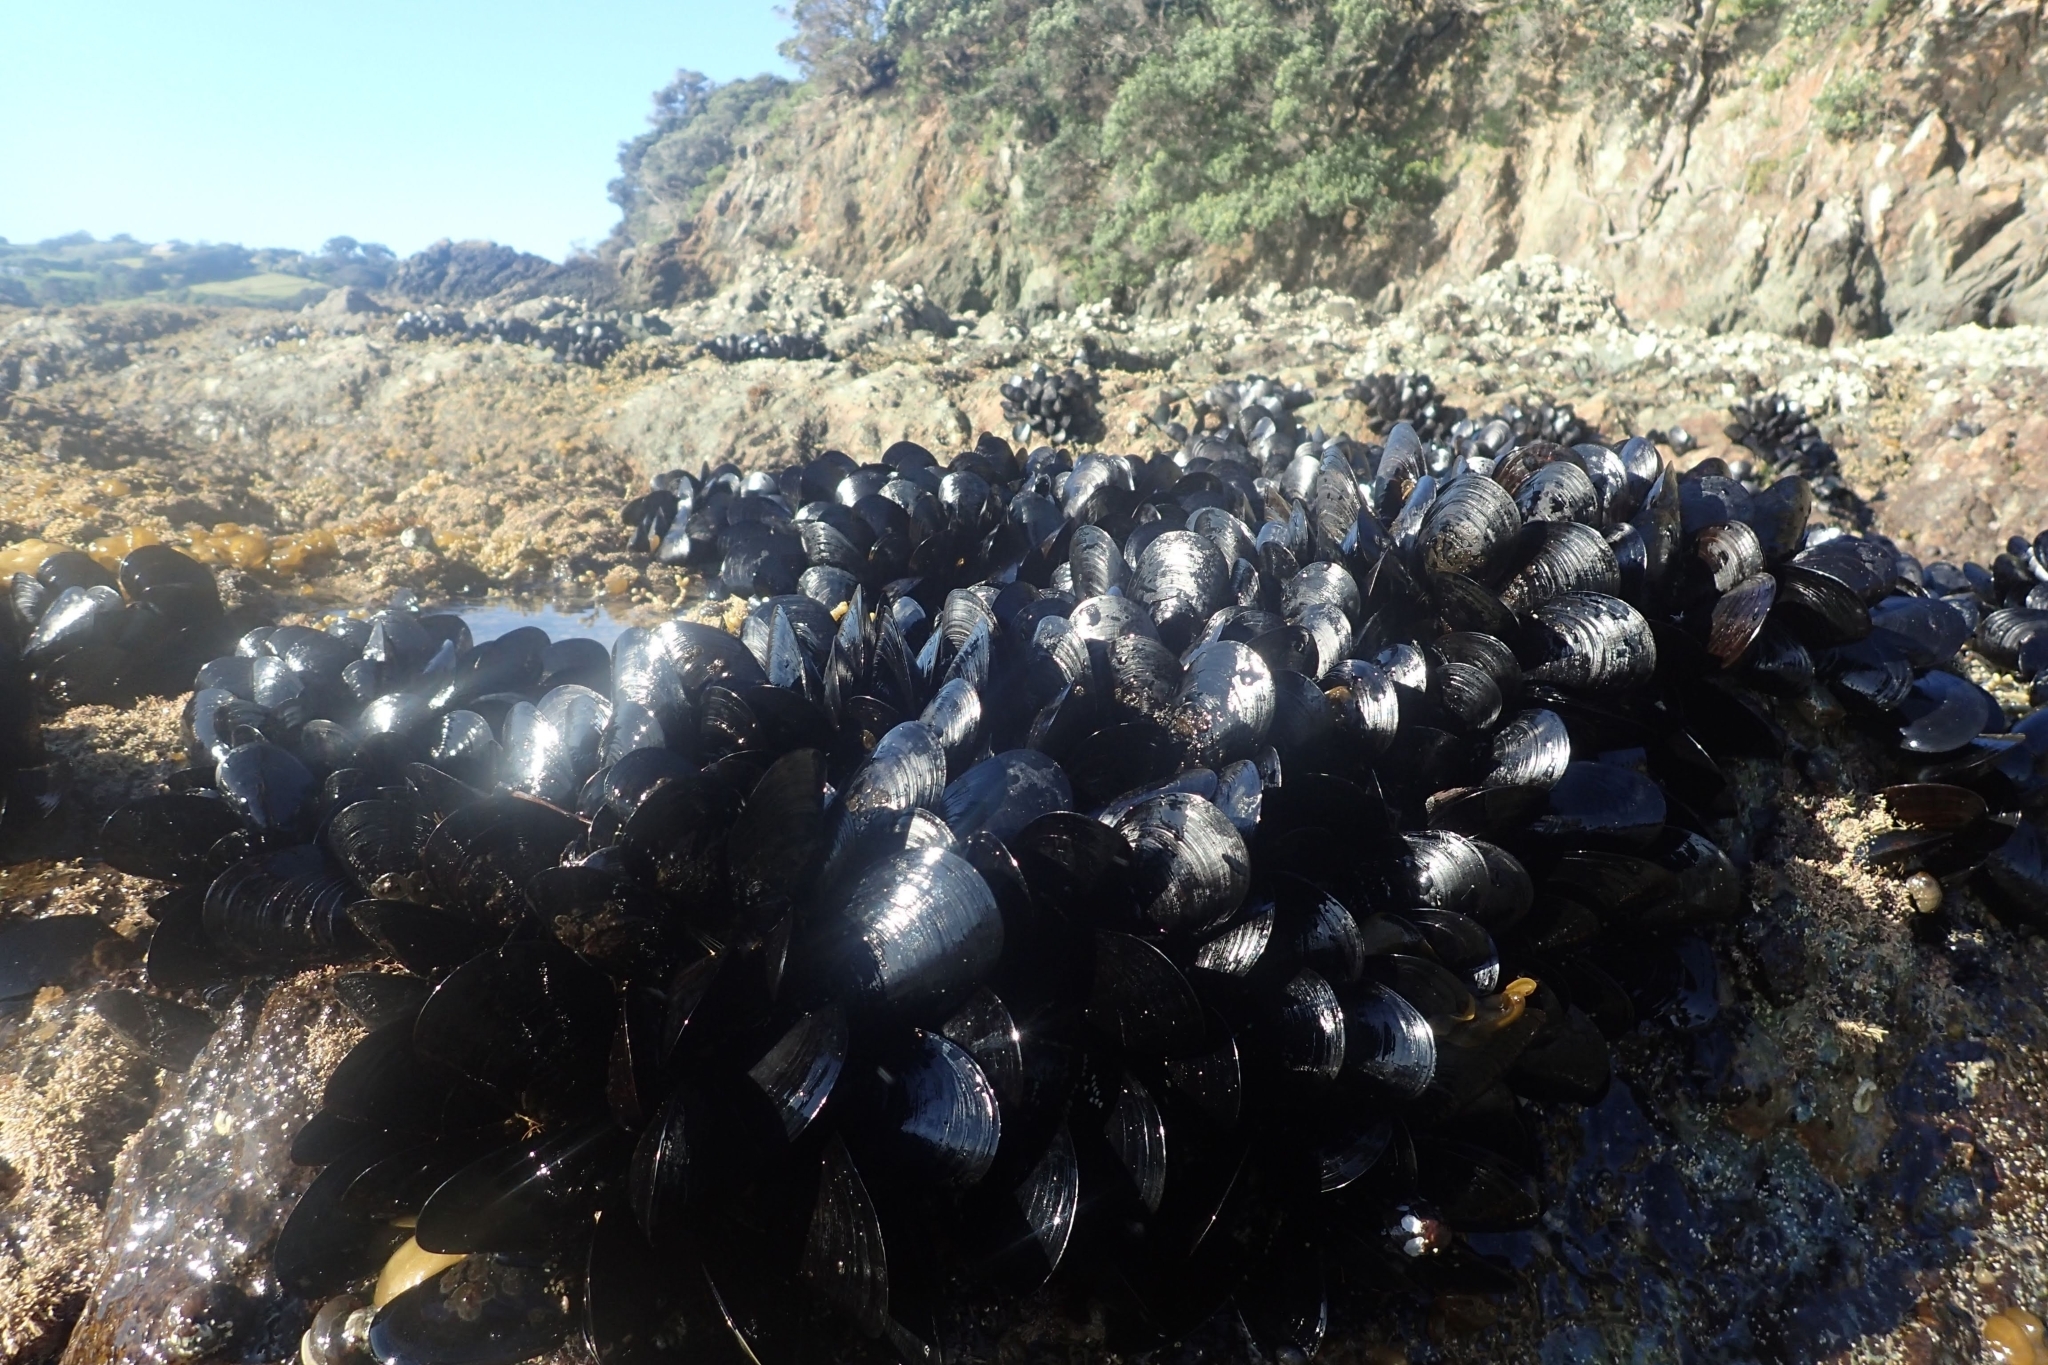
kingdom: Animalia
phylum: Mollusca
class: Bivalvia
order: Mytilida
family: Mytilidae
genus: Mytilus
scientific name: Mytilus planulatus
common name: Australian mussel
